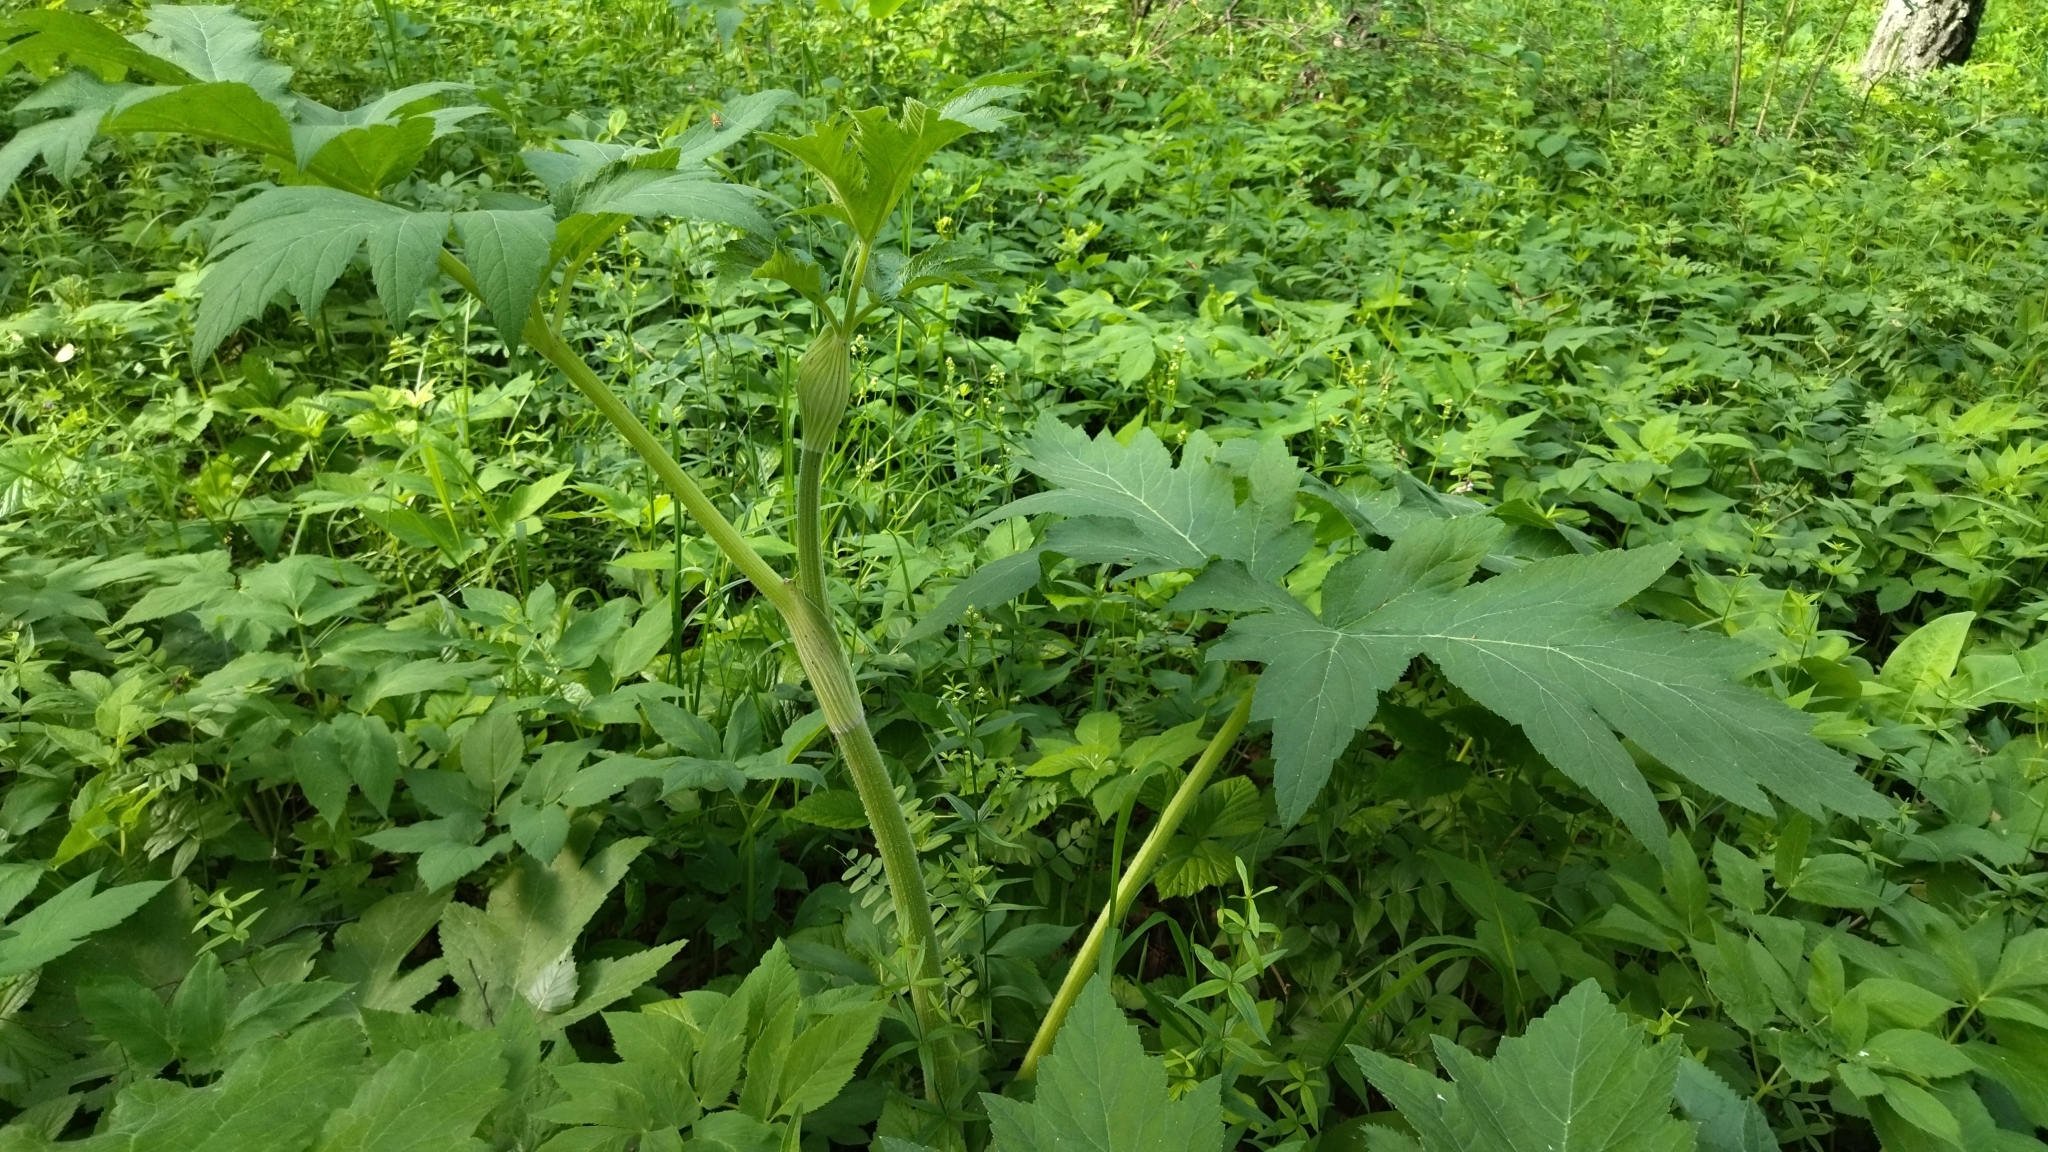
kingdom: Plantae
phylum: Tracheophyta
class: Magnoliopsida
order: Apiales
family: Apiaceae
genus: Heracleum
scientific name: Heracleum dissectum
